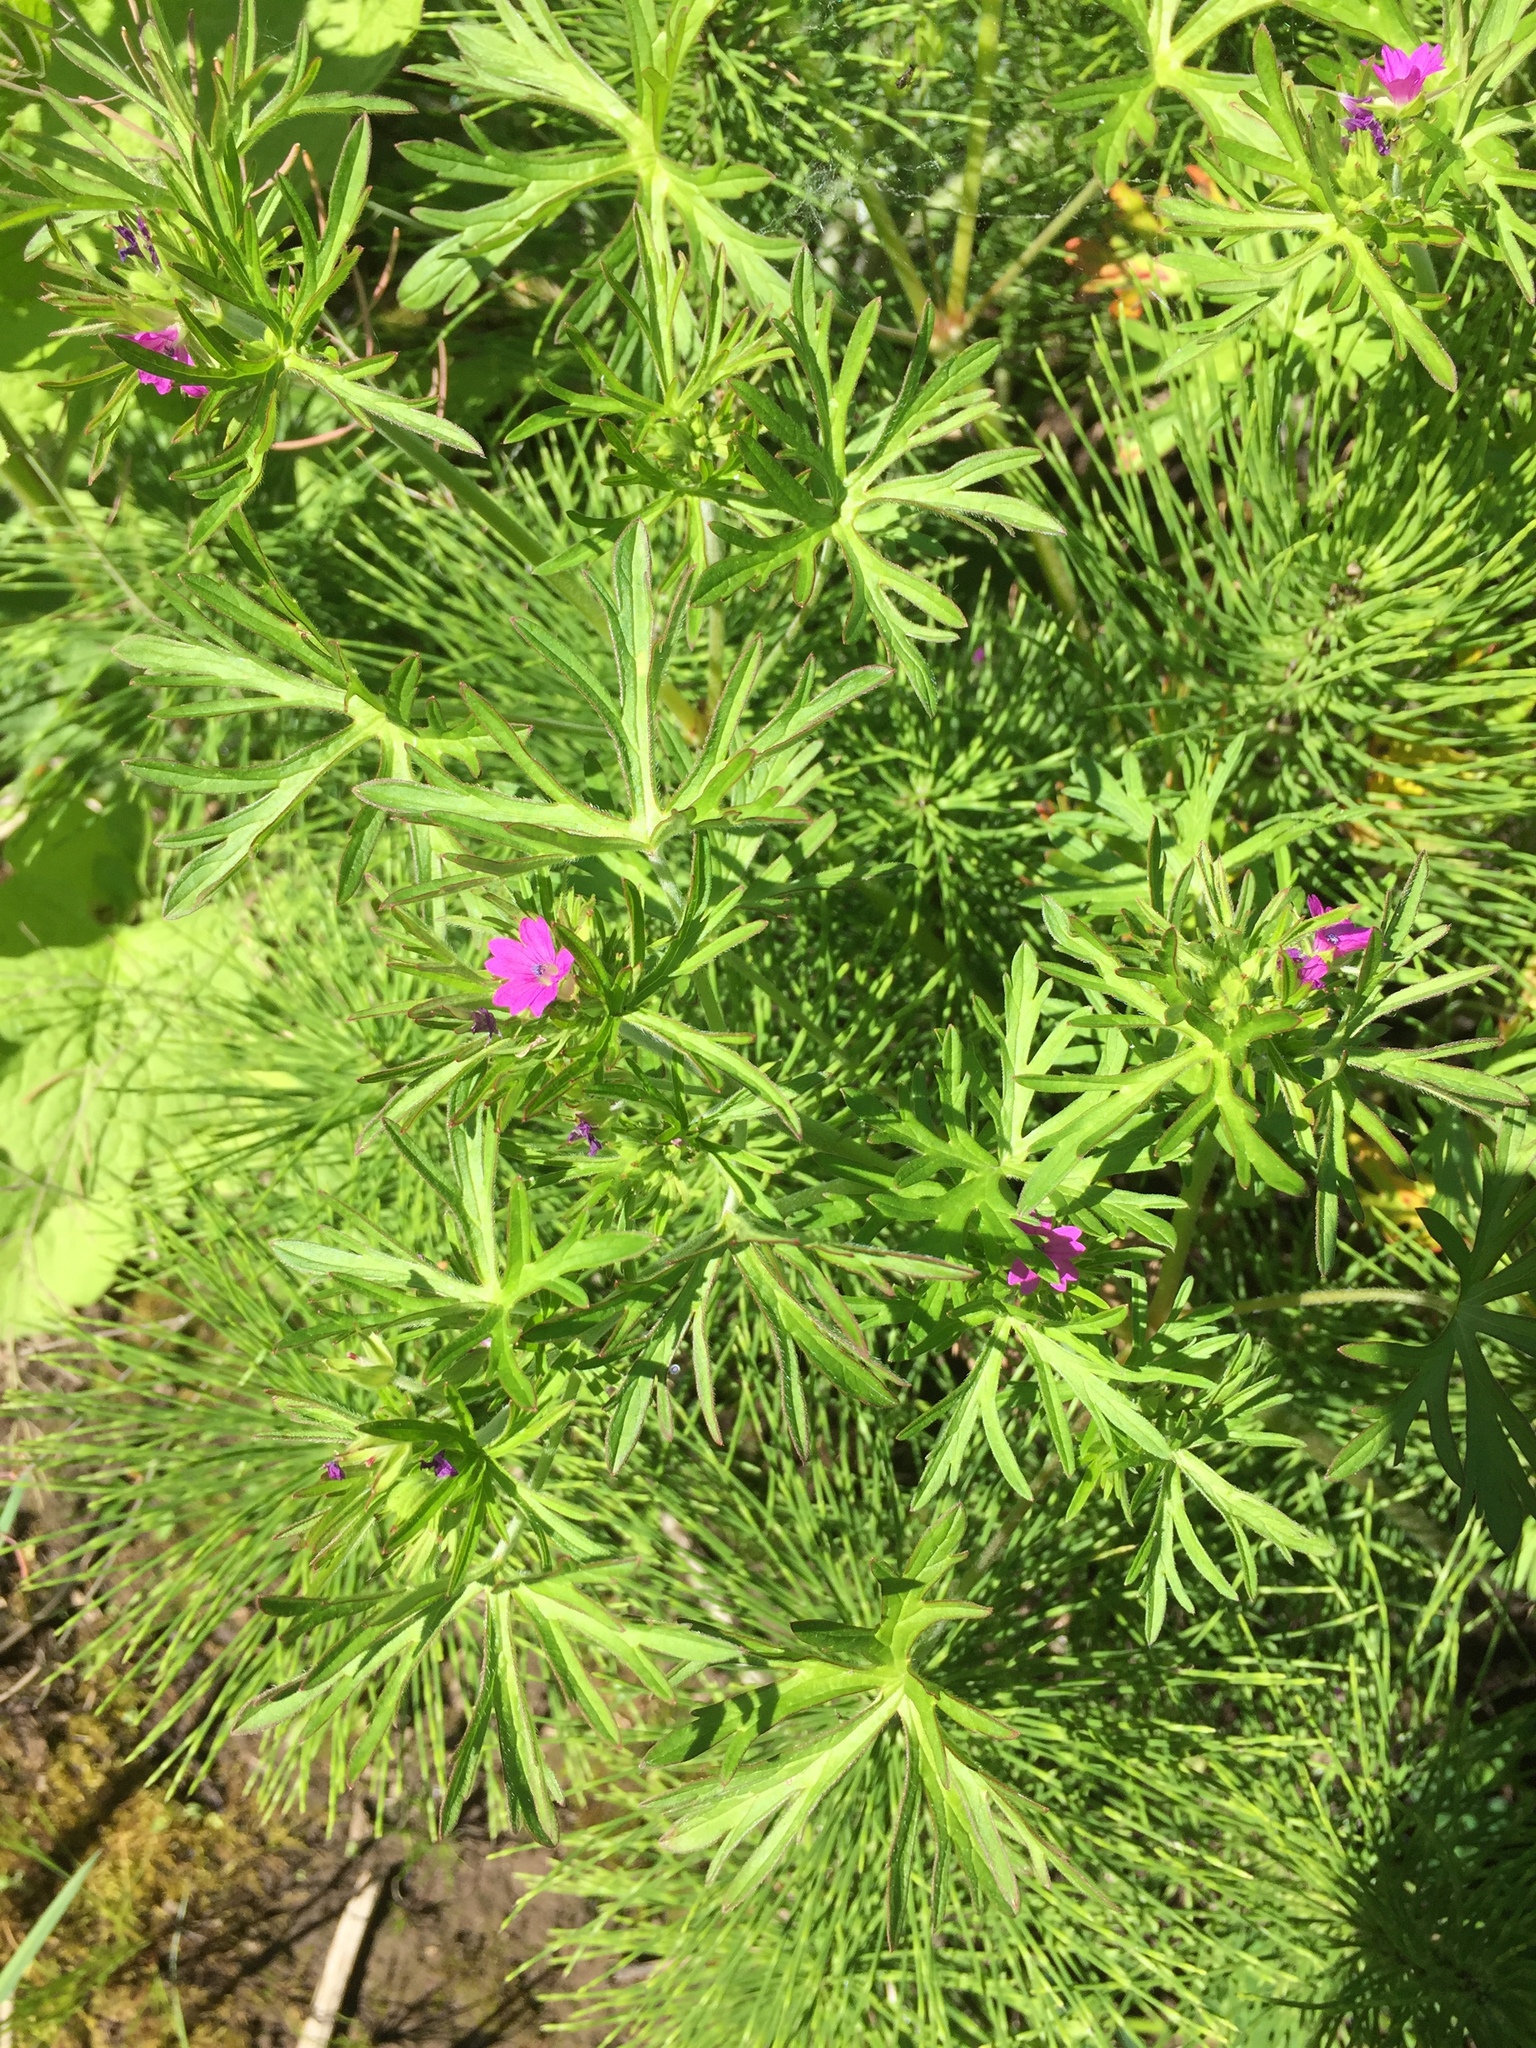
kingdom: Plantae
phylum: Tracheophyta
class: Magnoliopsida
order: Geraniales
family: Geraniaceae
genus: Geranium
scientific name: Geranium dissectum
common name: Cut-leaved crane's-bill
